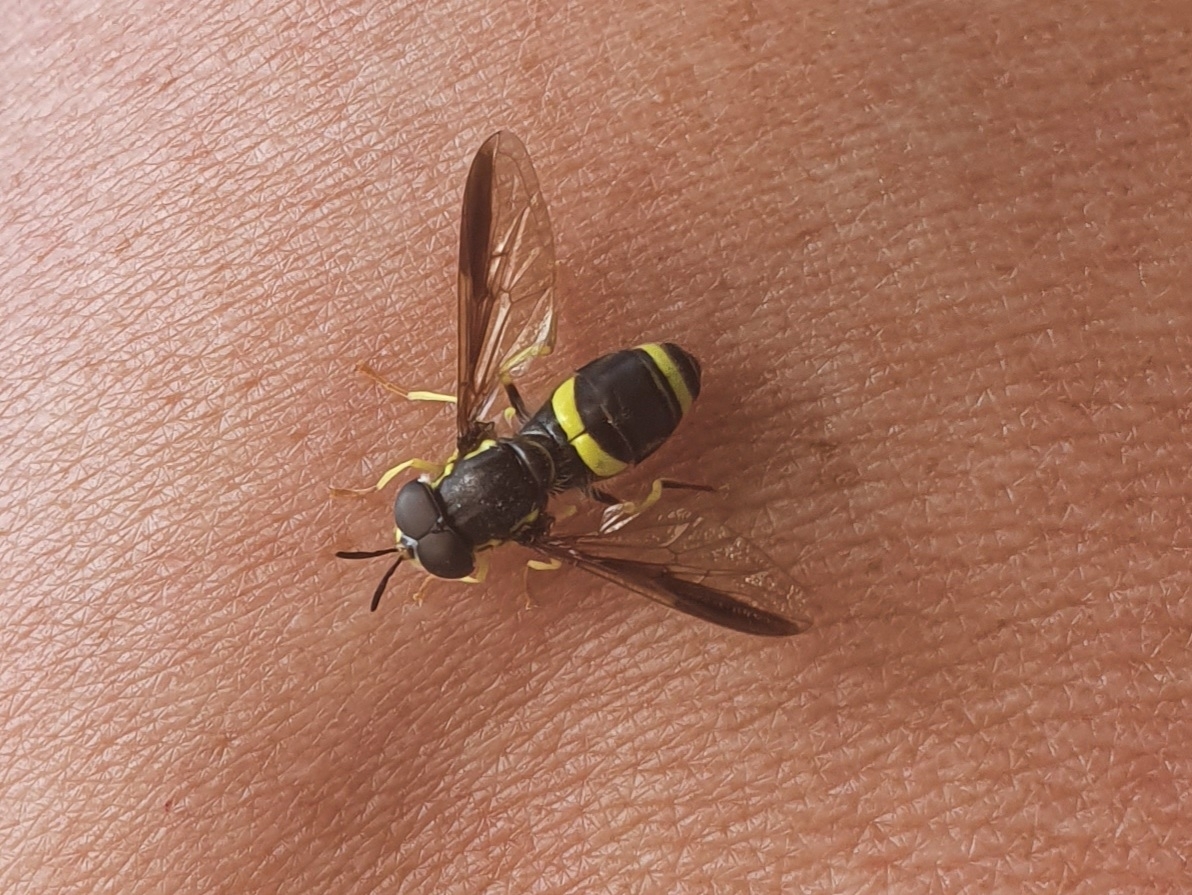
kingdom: Animalia
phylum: Arthropoda
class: Insecta
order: Diptera
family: Syrphidae
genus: Chrysotoxum
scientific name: Chrysotoxum bicincta
